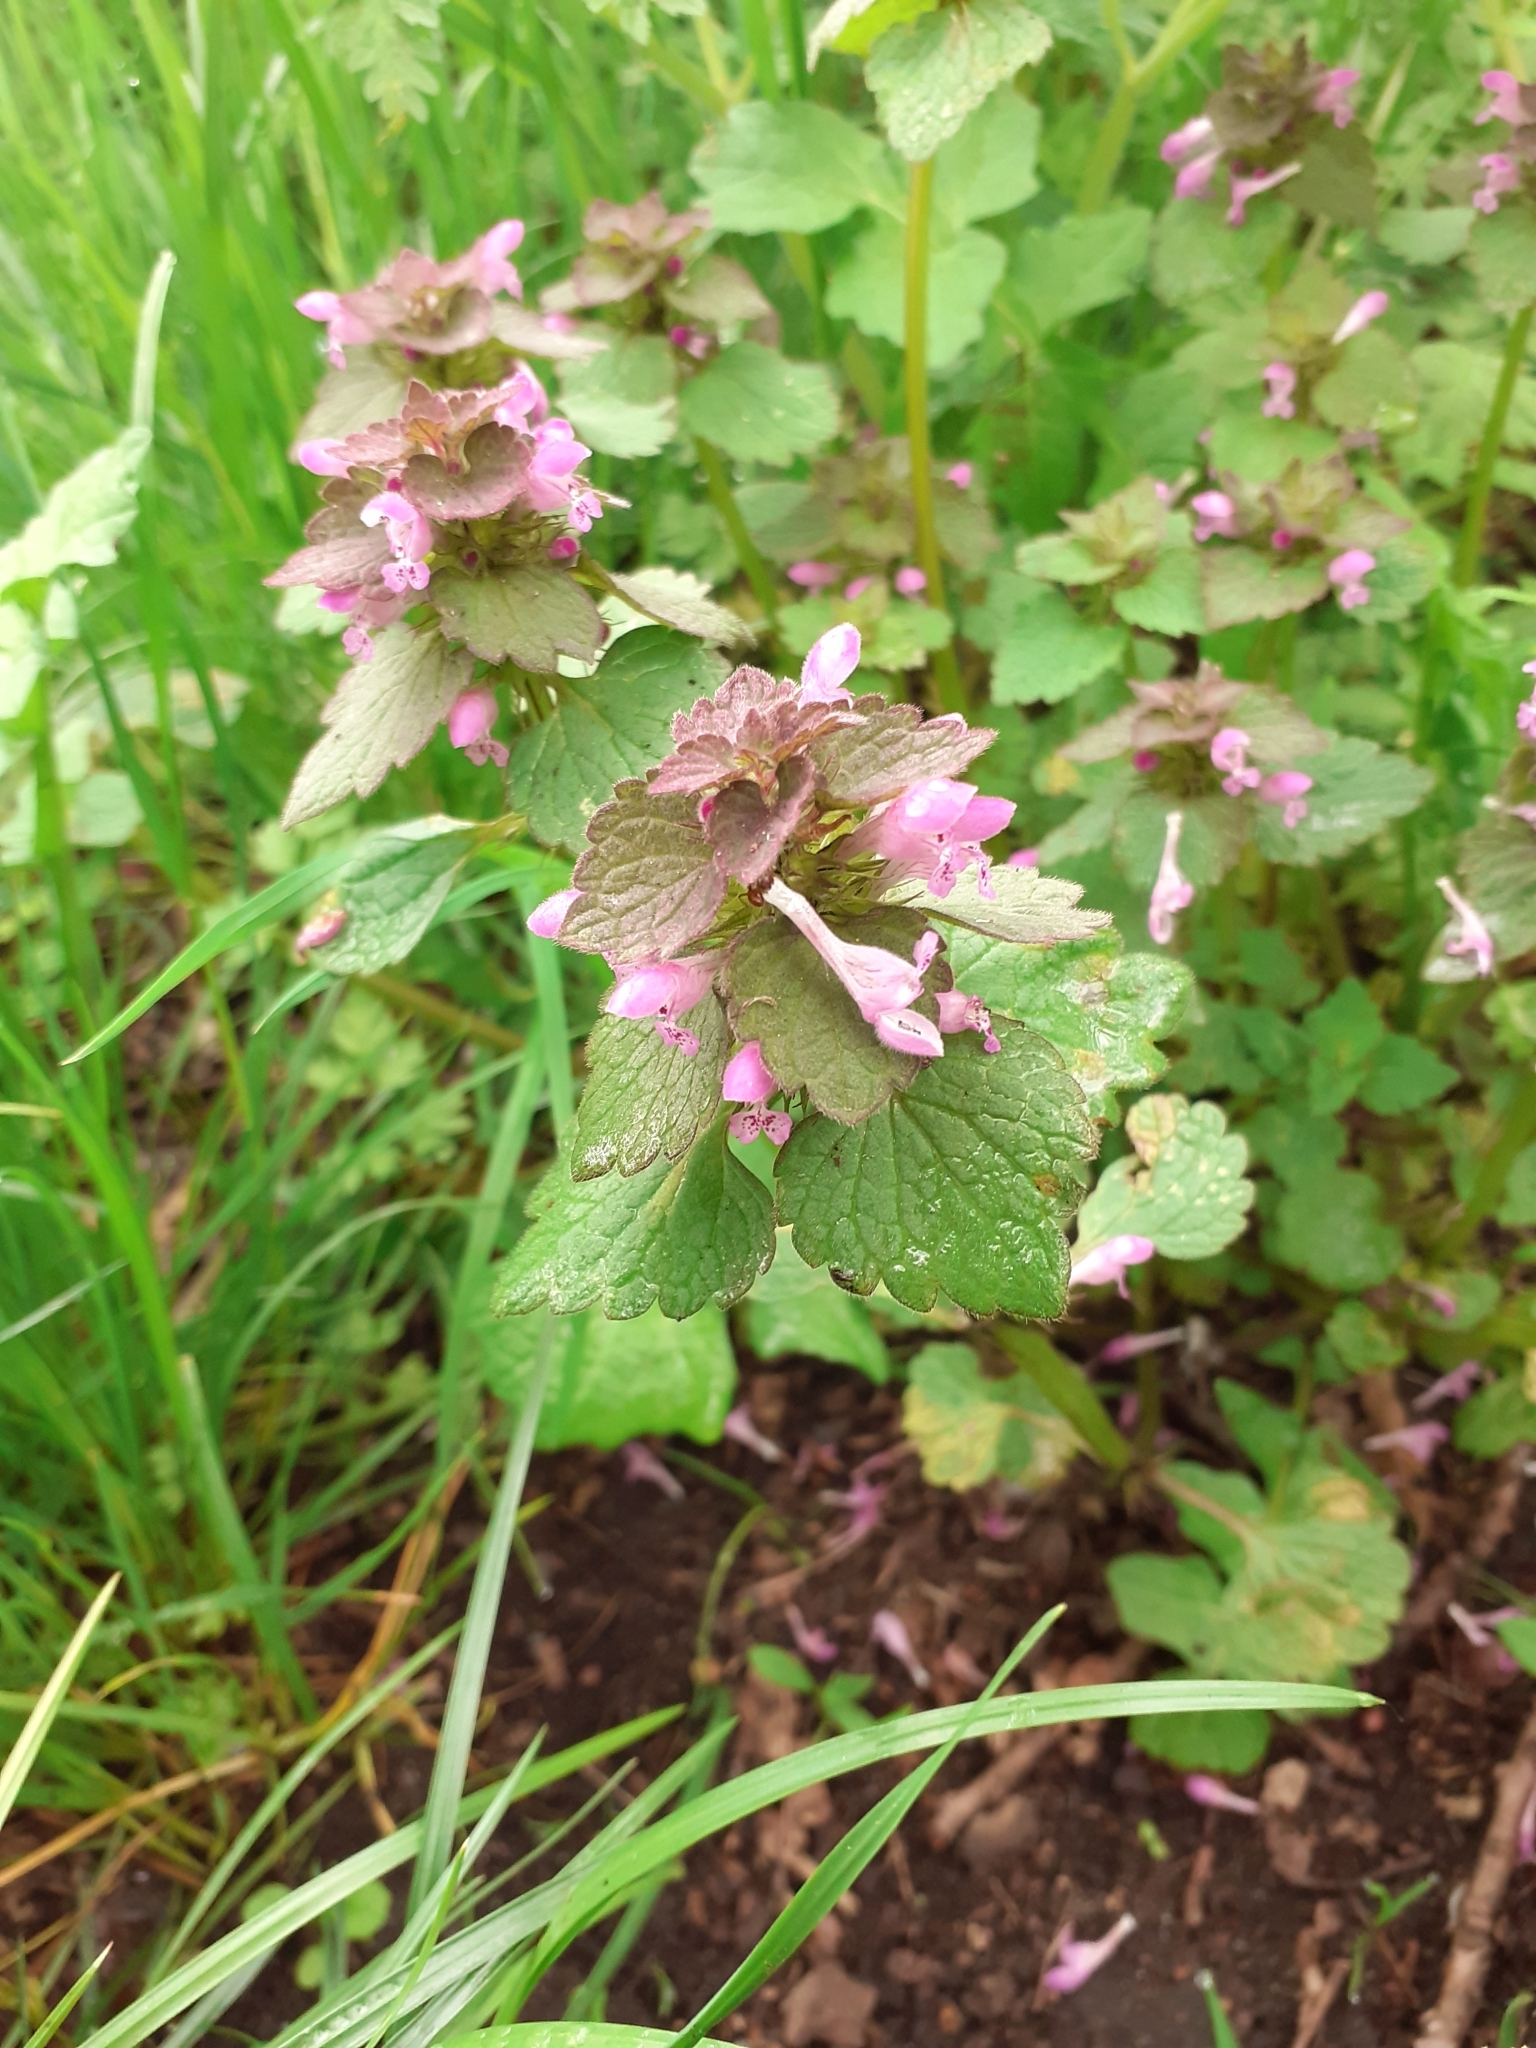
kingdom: Plantae
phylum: Tracheophyta
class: Magnoliopsida
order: Lamiales
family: Lamiaceae
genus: Lamium
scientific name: Lamium purpureum
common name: Red dead-nettle
